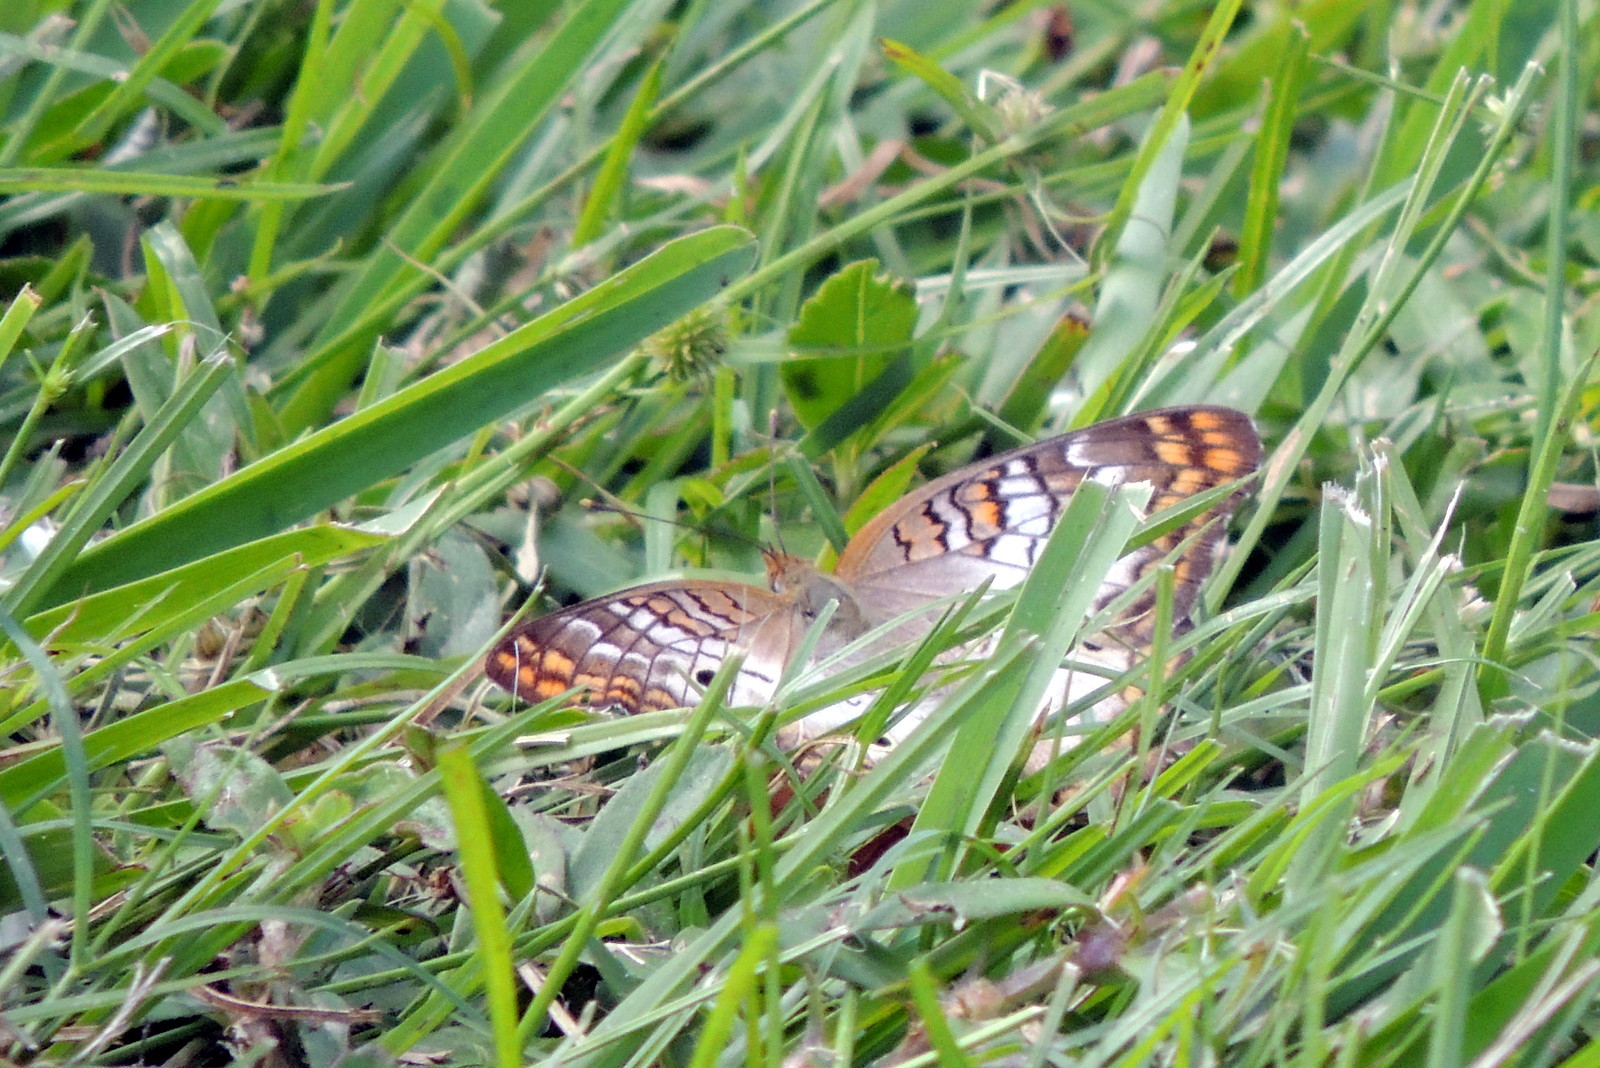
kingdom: Animalia
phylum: Arthropoda
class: Insecta
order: Lepidoptera
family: Nymphalidae
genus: Anartia
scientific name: Anartia jatrophae
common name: White peacock
